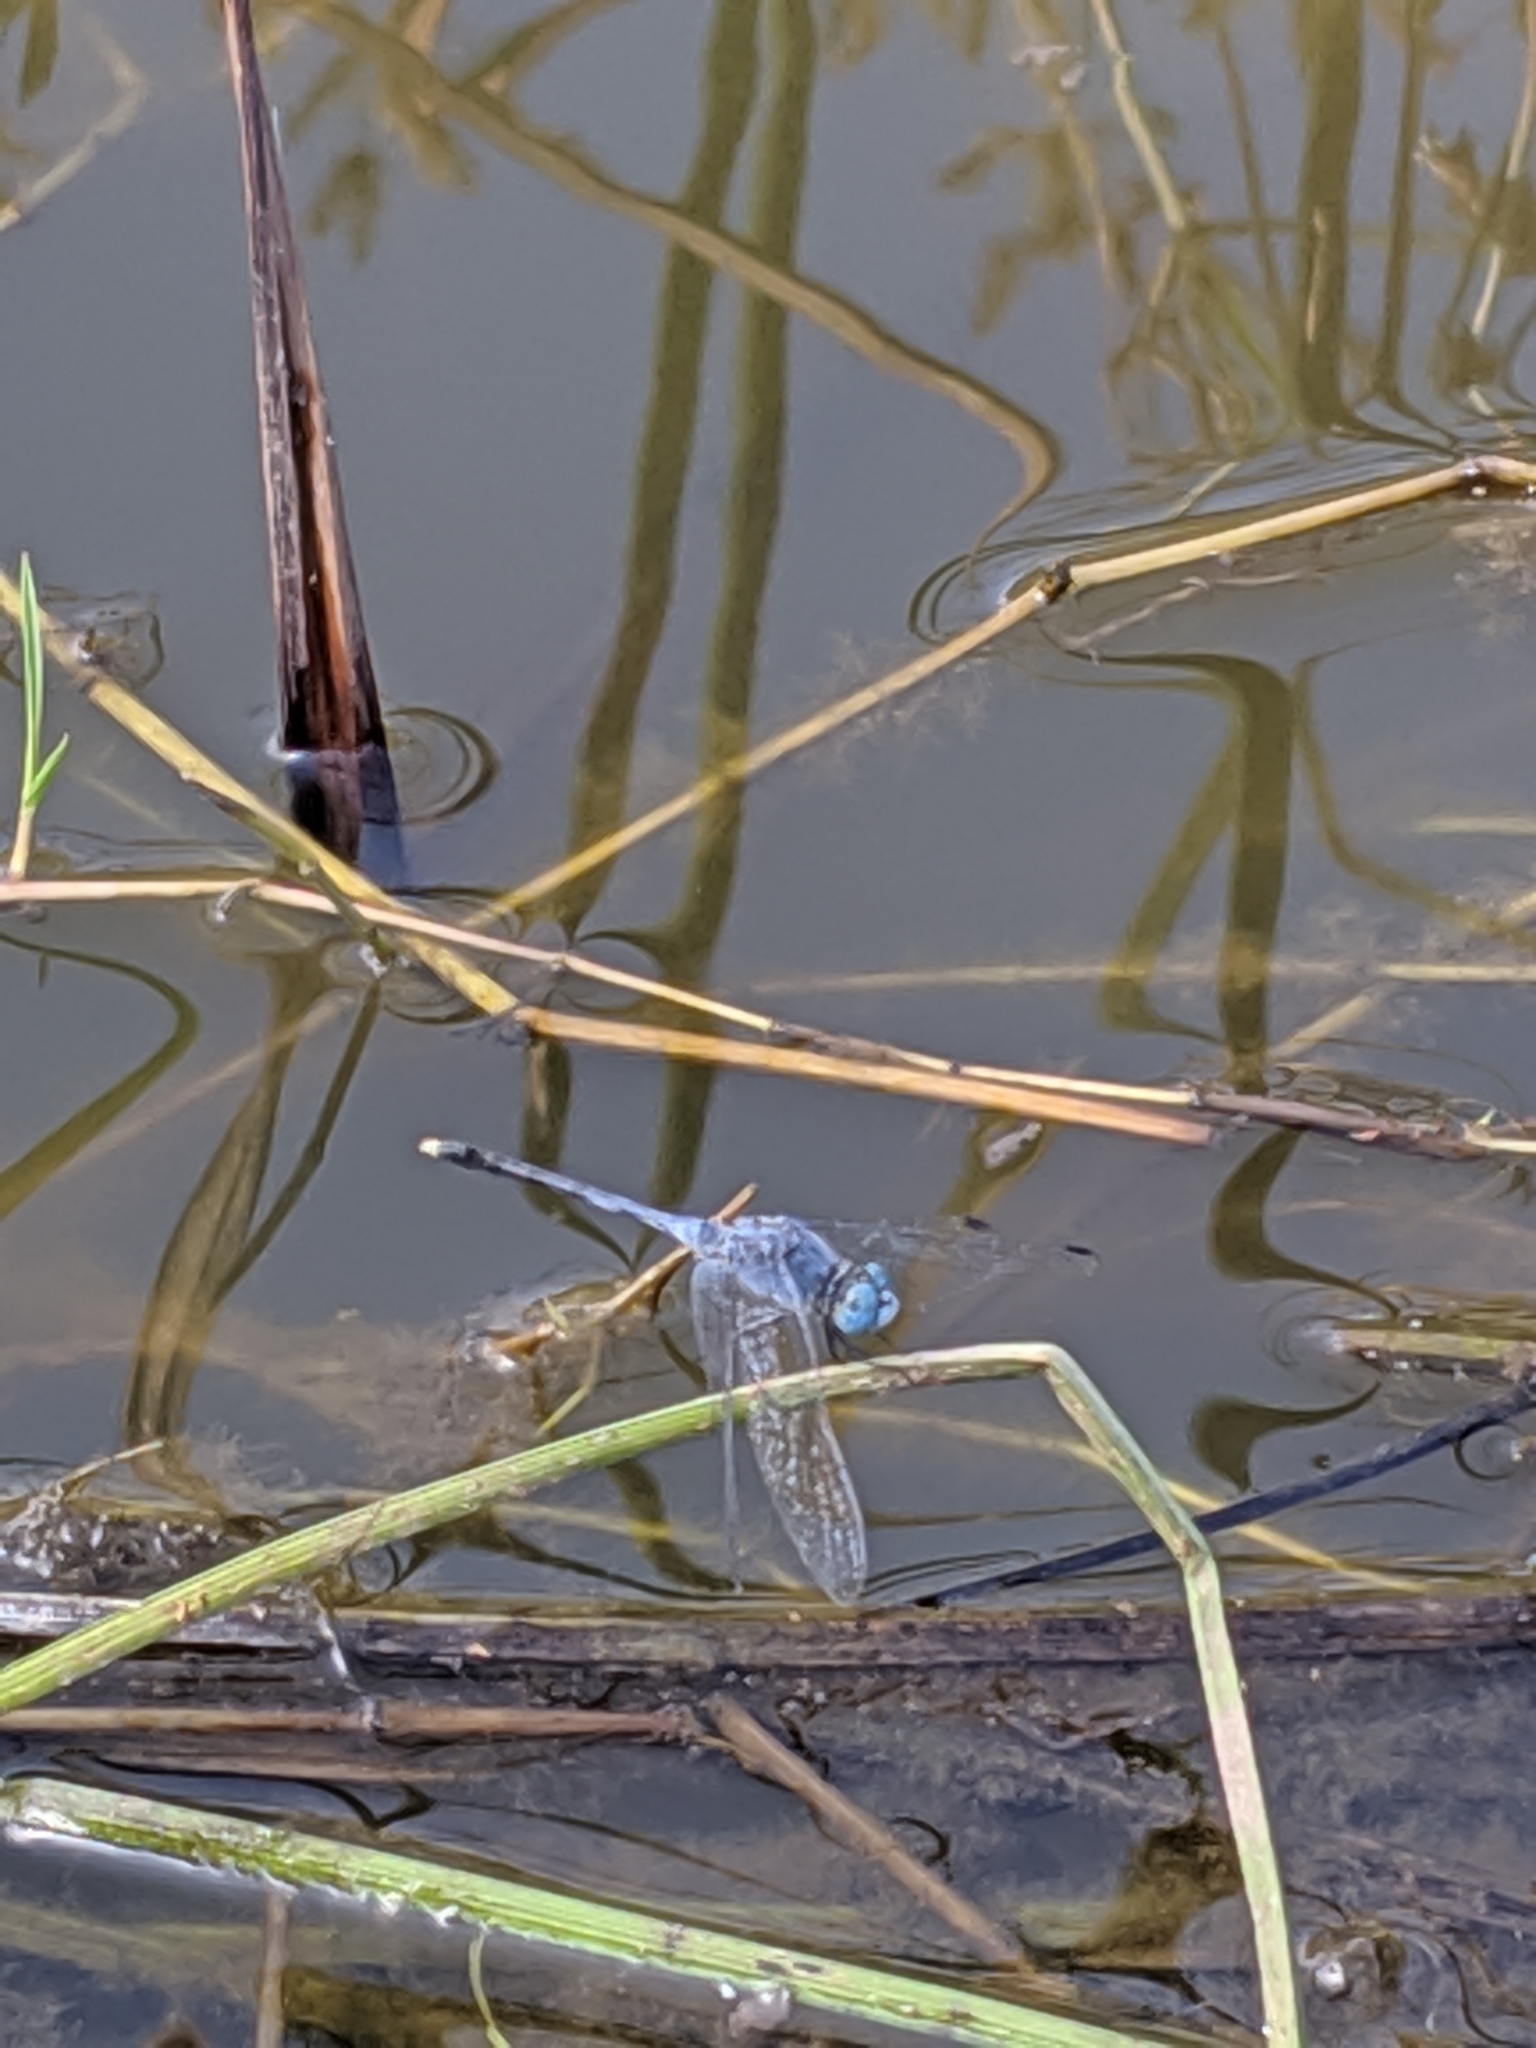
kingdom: Animalia
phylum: Arthropoda
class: Insecta
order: Odonata
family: Libellulidae
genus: Diplacodes
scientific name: Diplacodes trivialis
